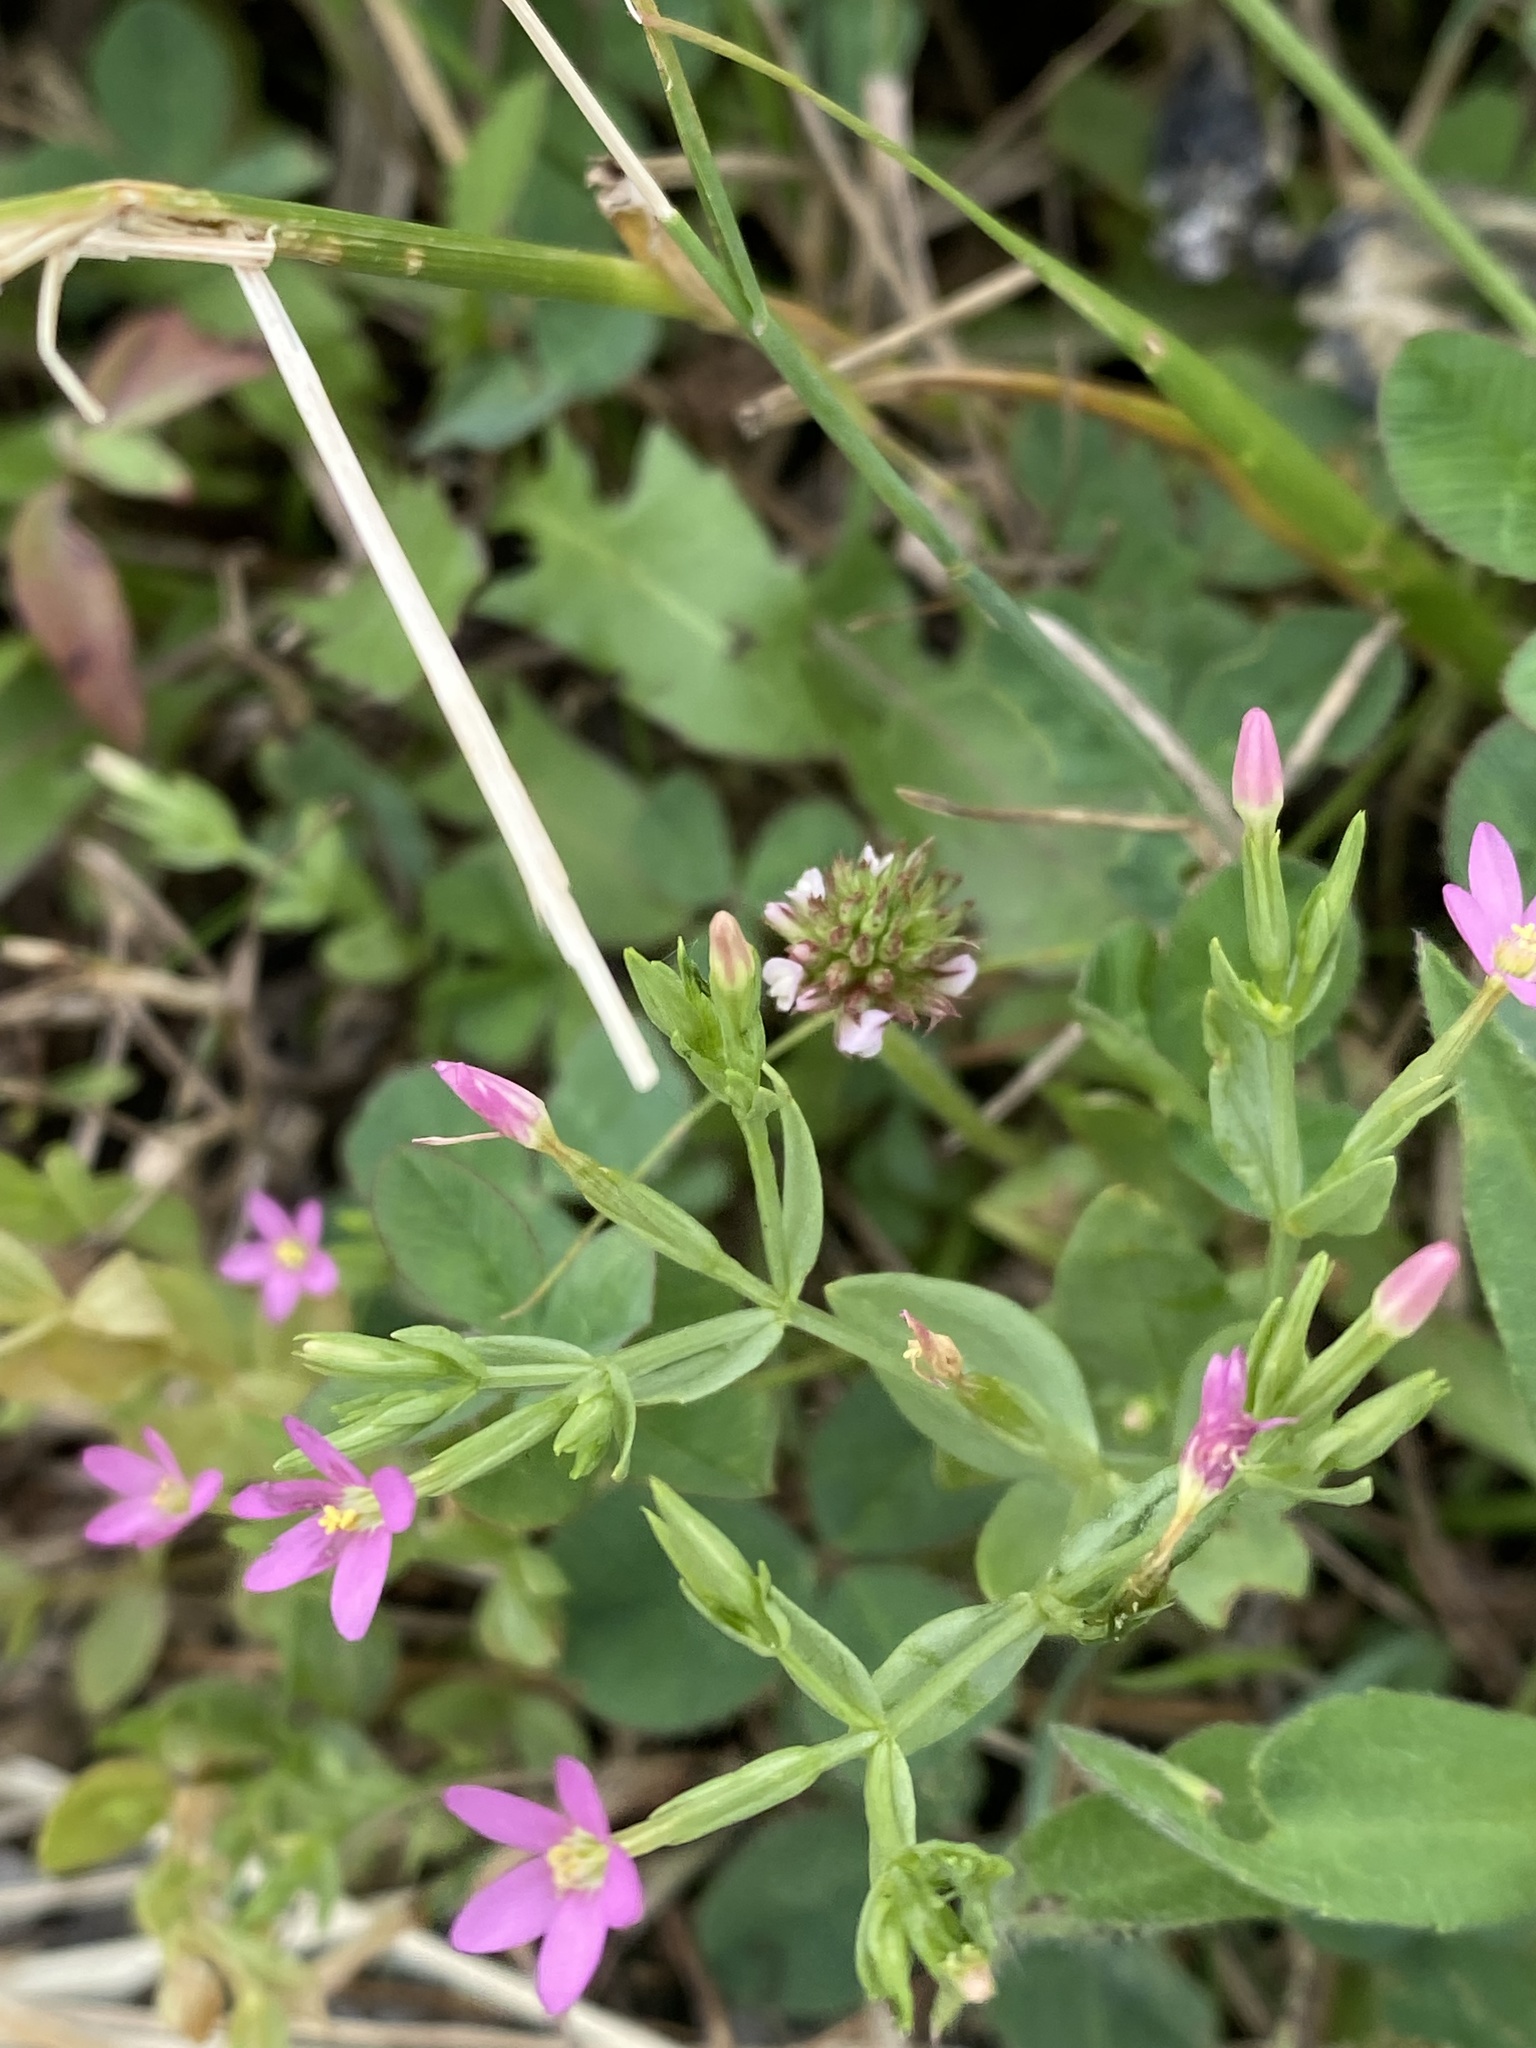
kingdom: Plantae
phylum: Tracheophyta
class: Magnoliopsida
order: Gentianales
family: Gentianaceae
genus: Centaurium
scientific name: Centaurium pulchellum
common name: Lesser centaury
